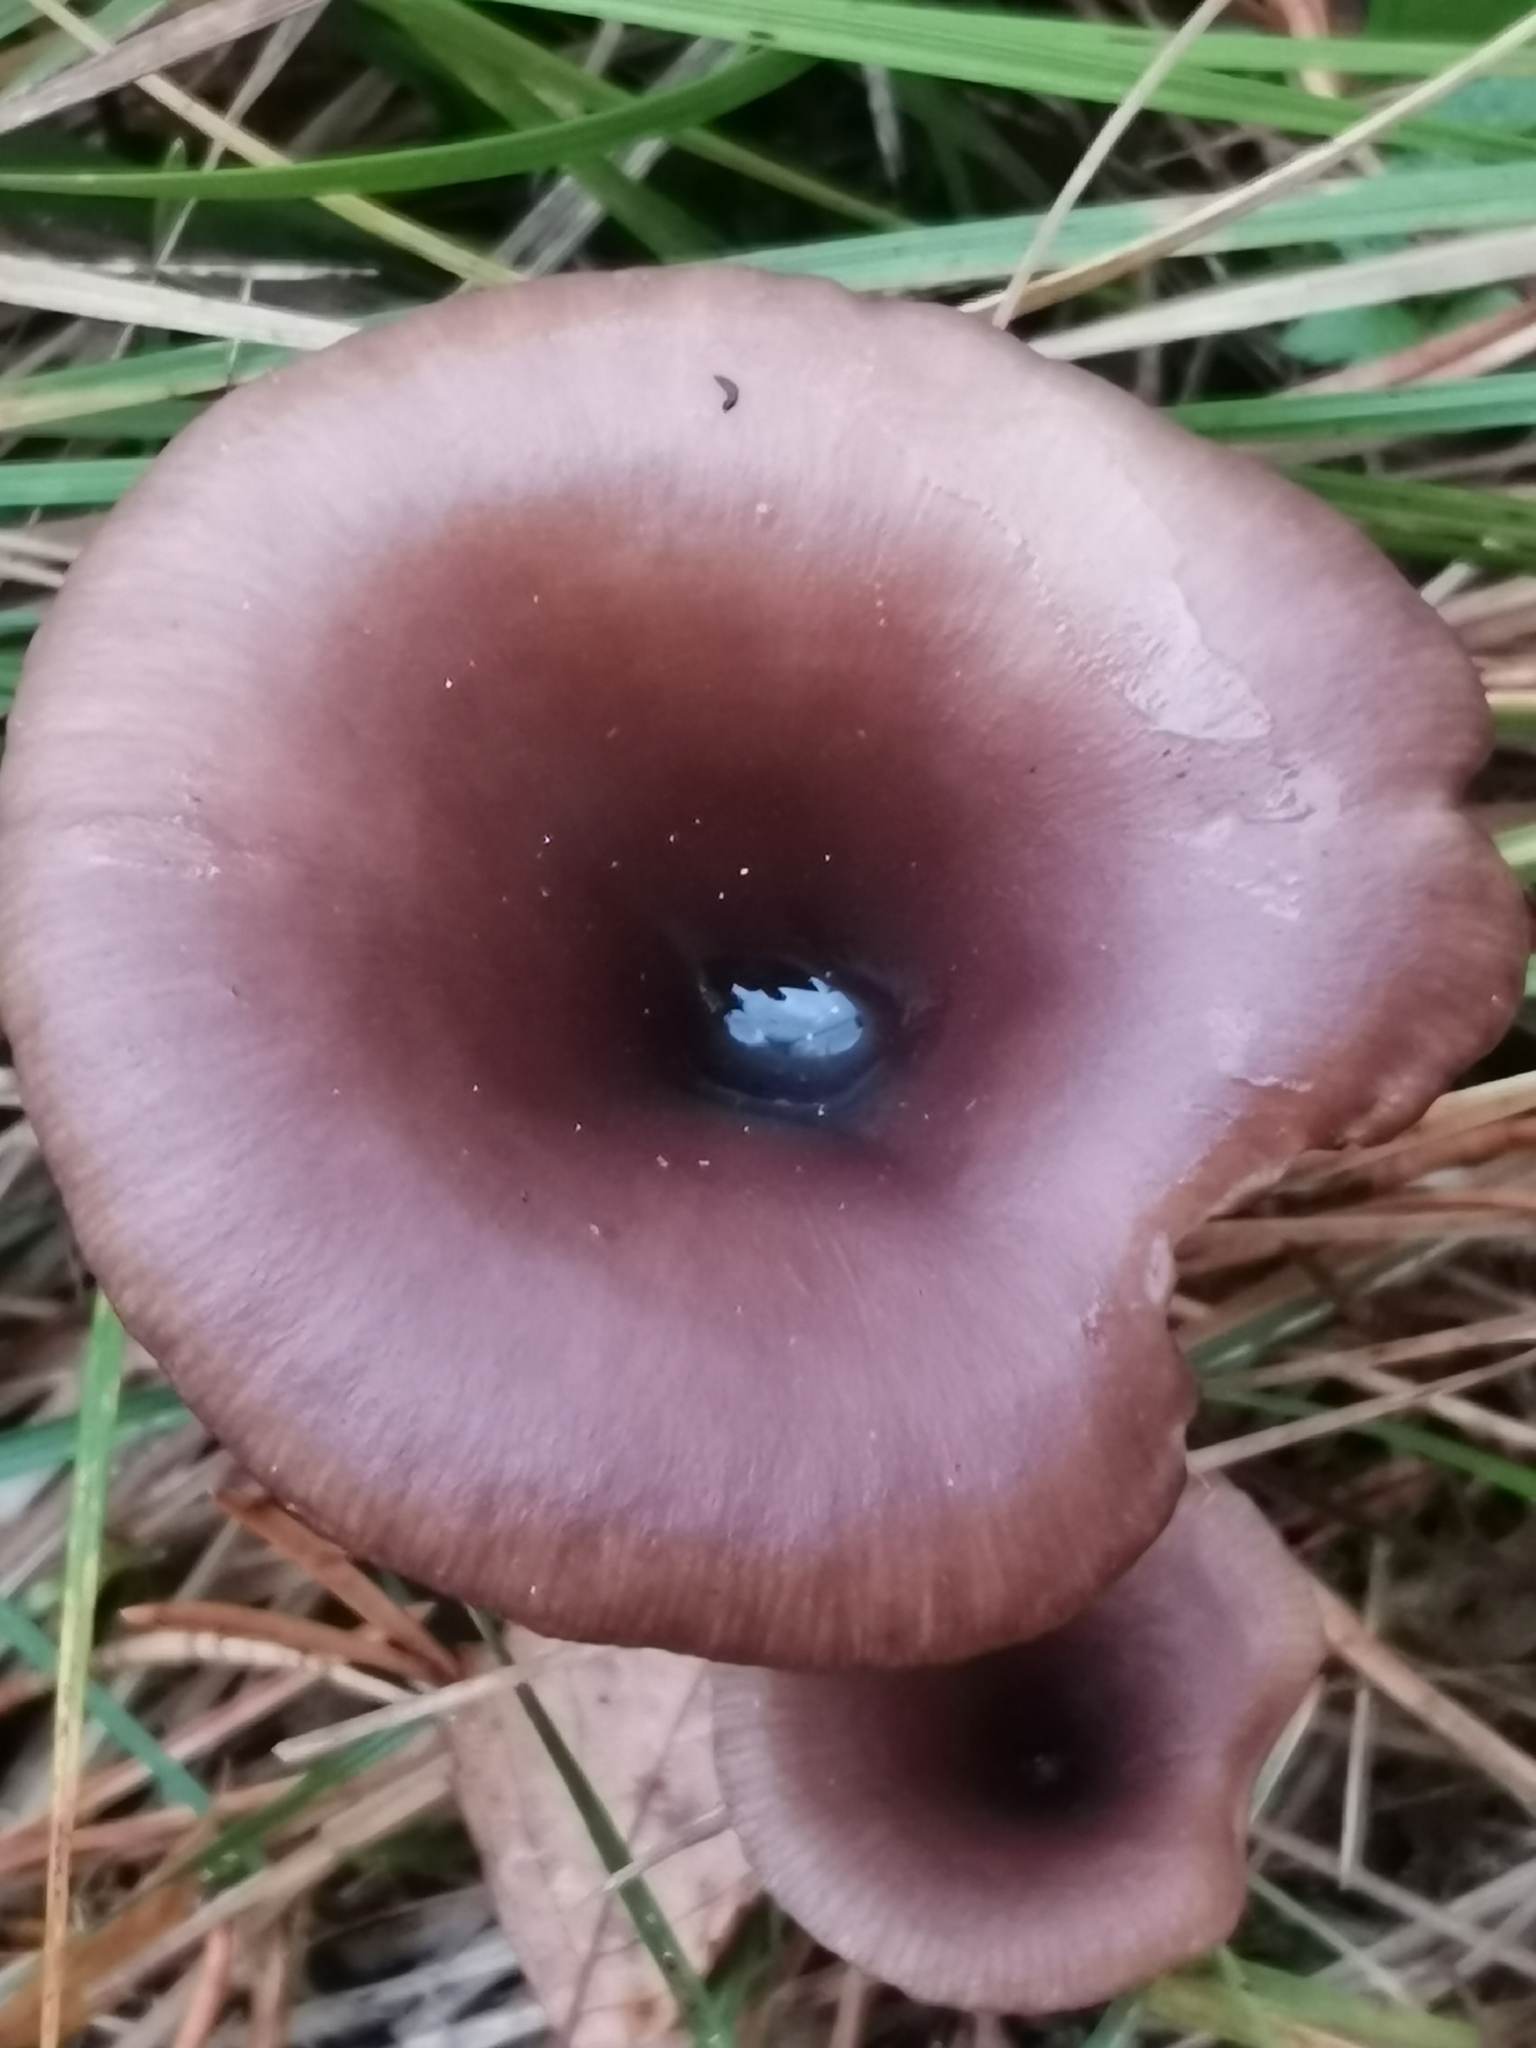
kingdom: Fungi
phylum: Basidiomycota
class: Agaricomycetes
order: Agaricales
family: Pseudoclitocybaceae
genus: Pseudoclitocybe
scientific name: Pseudoclitocybe cyathiformis
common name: Goblet
